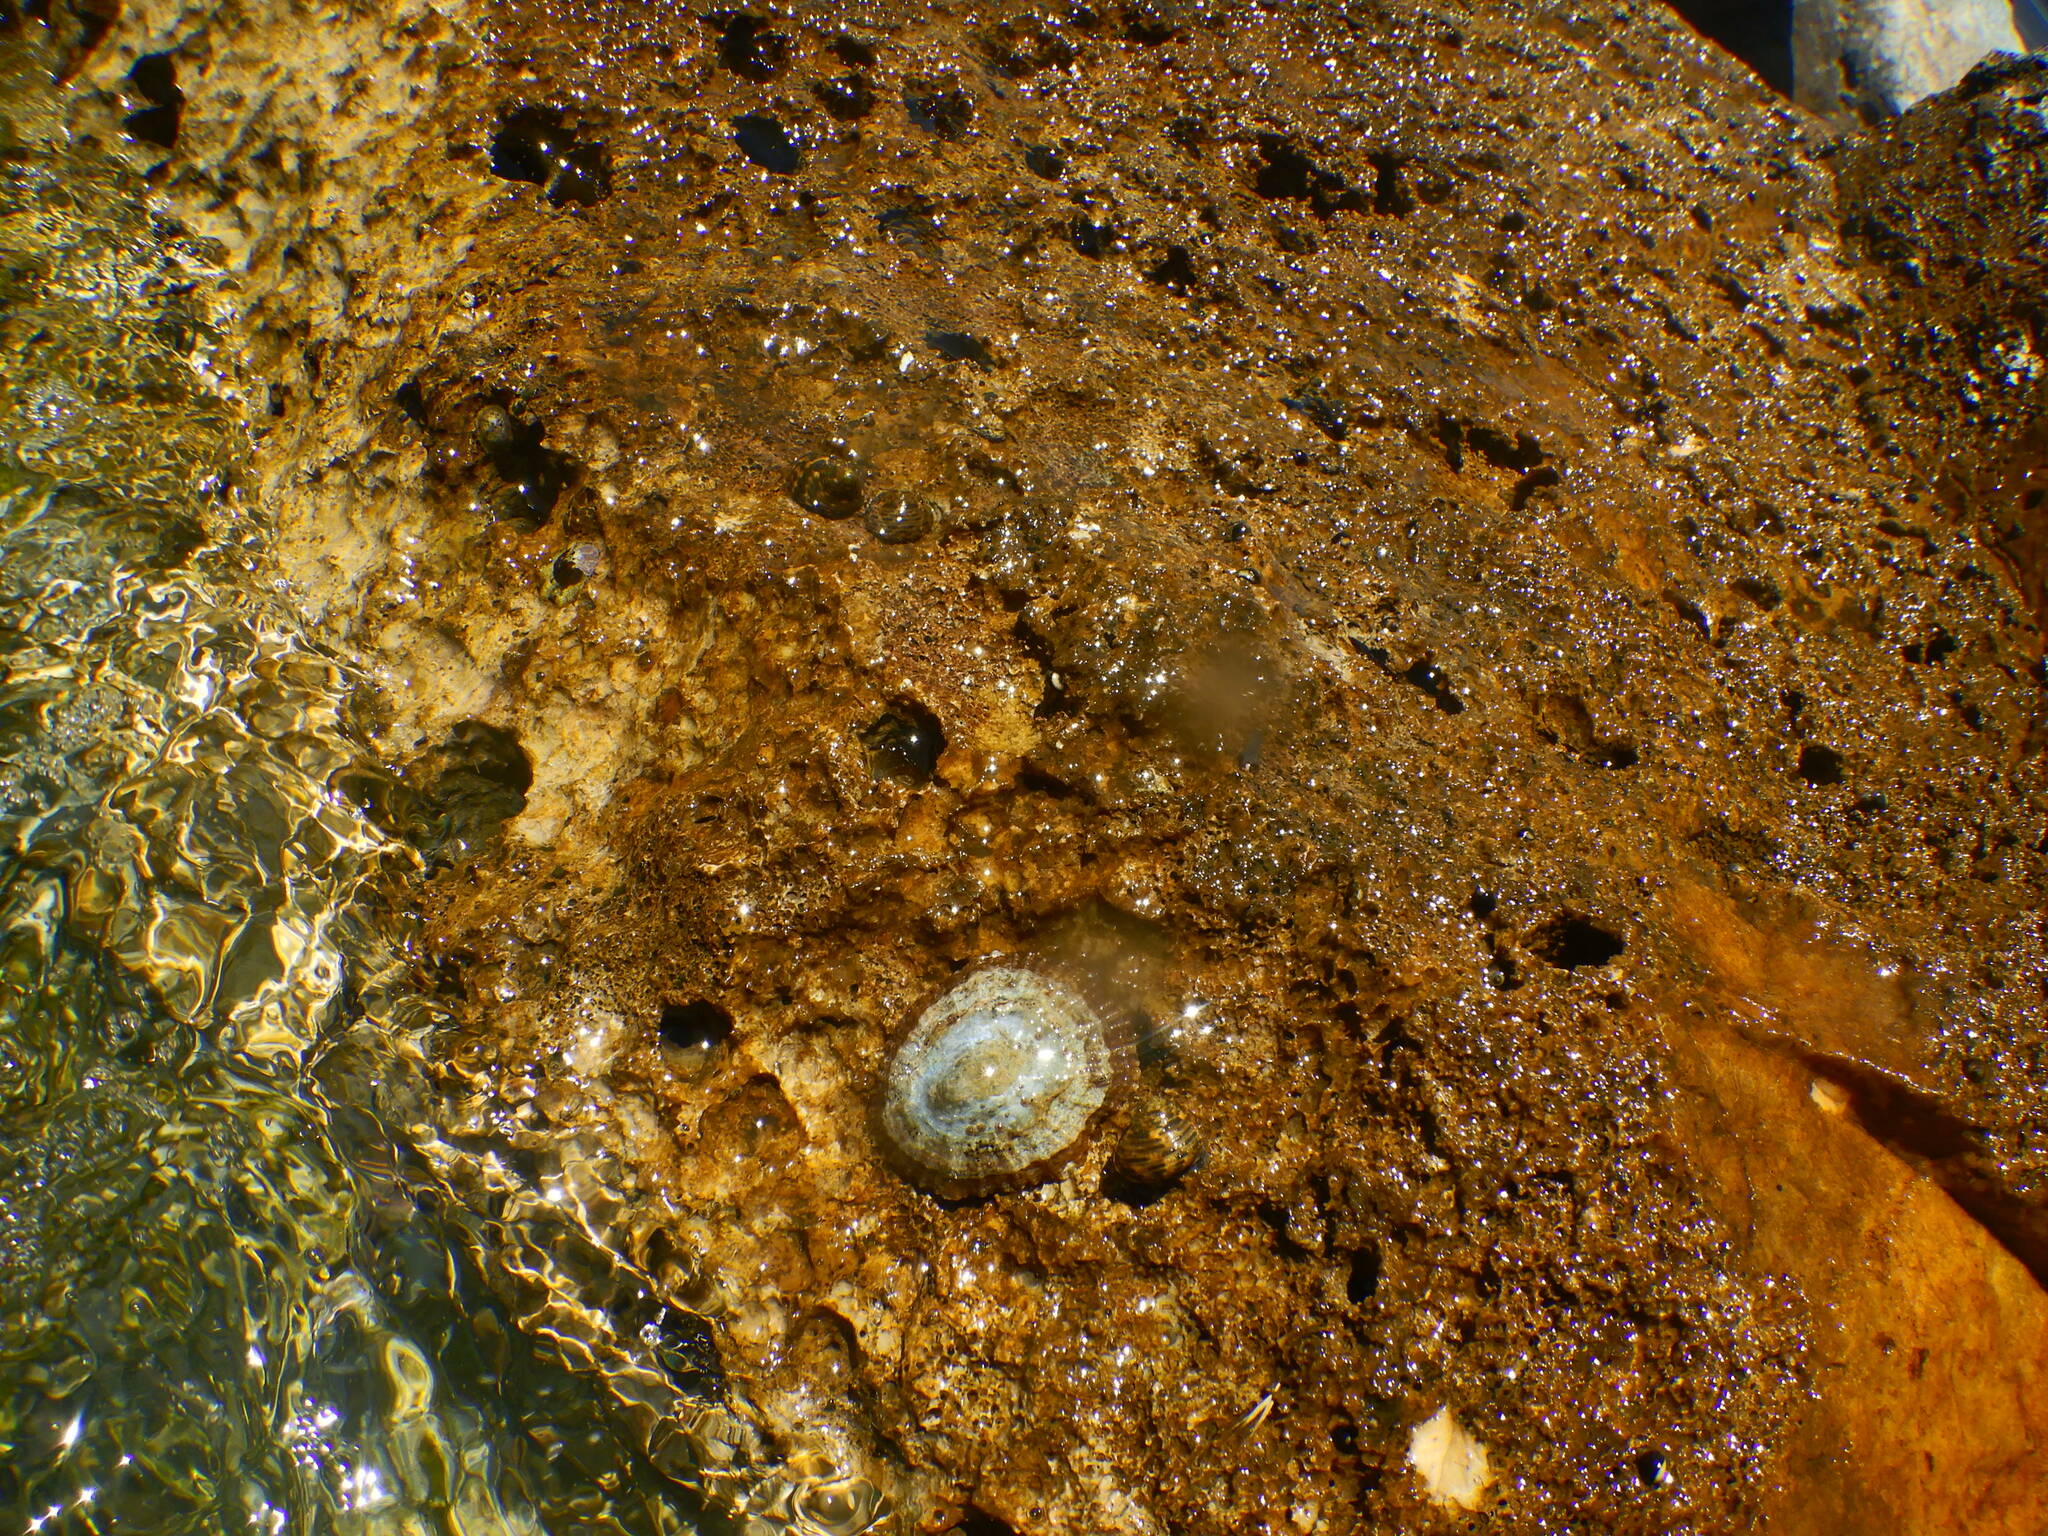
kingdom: Animalia
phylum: Mollusca
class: Gastropoda
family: Patellidae
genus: Patella
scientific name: Patella caerulea
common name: Mediterranean limpet
